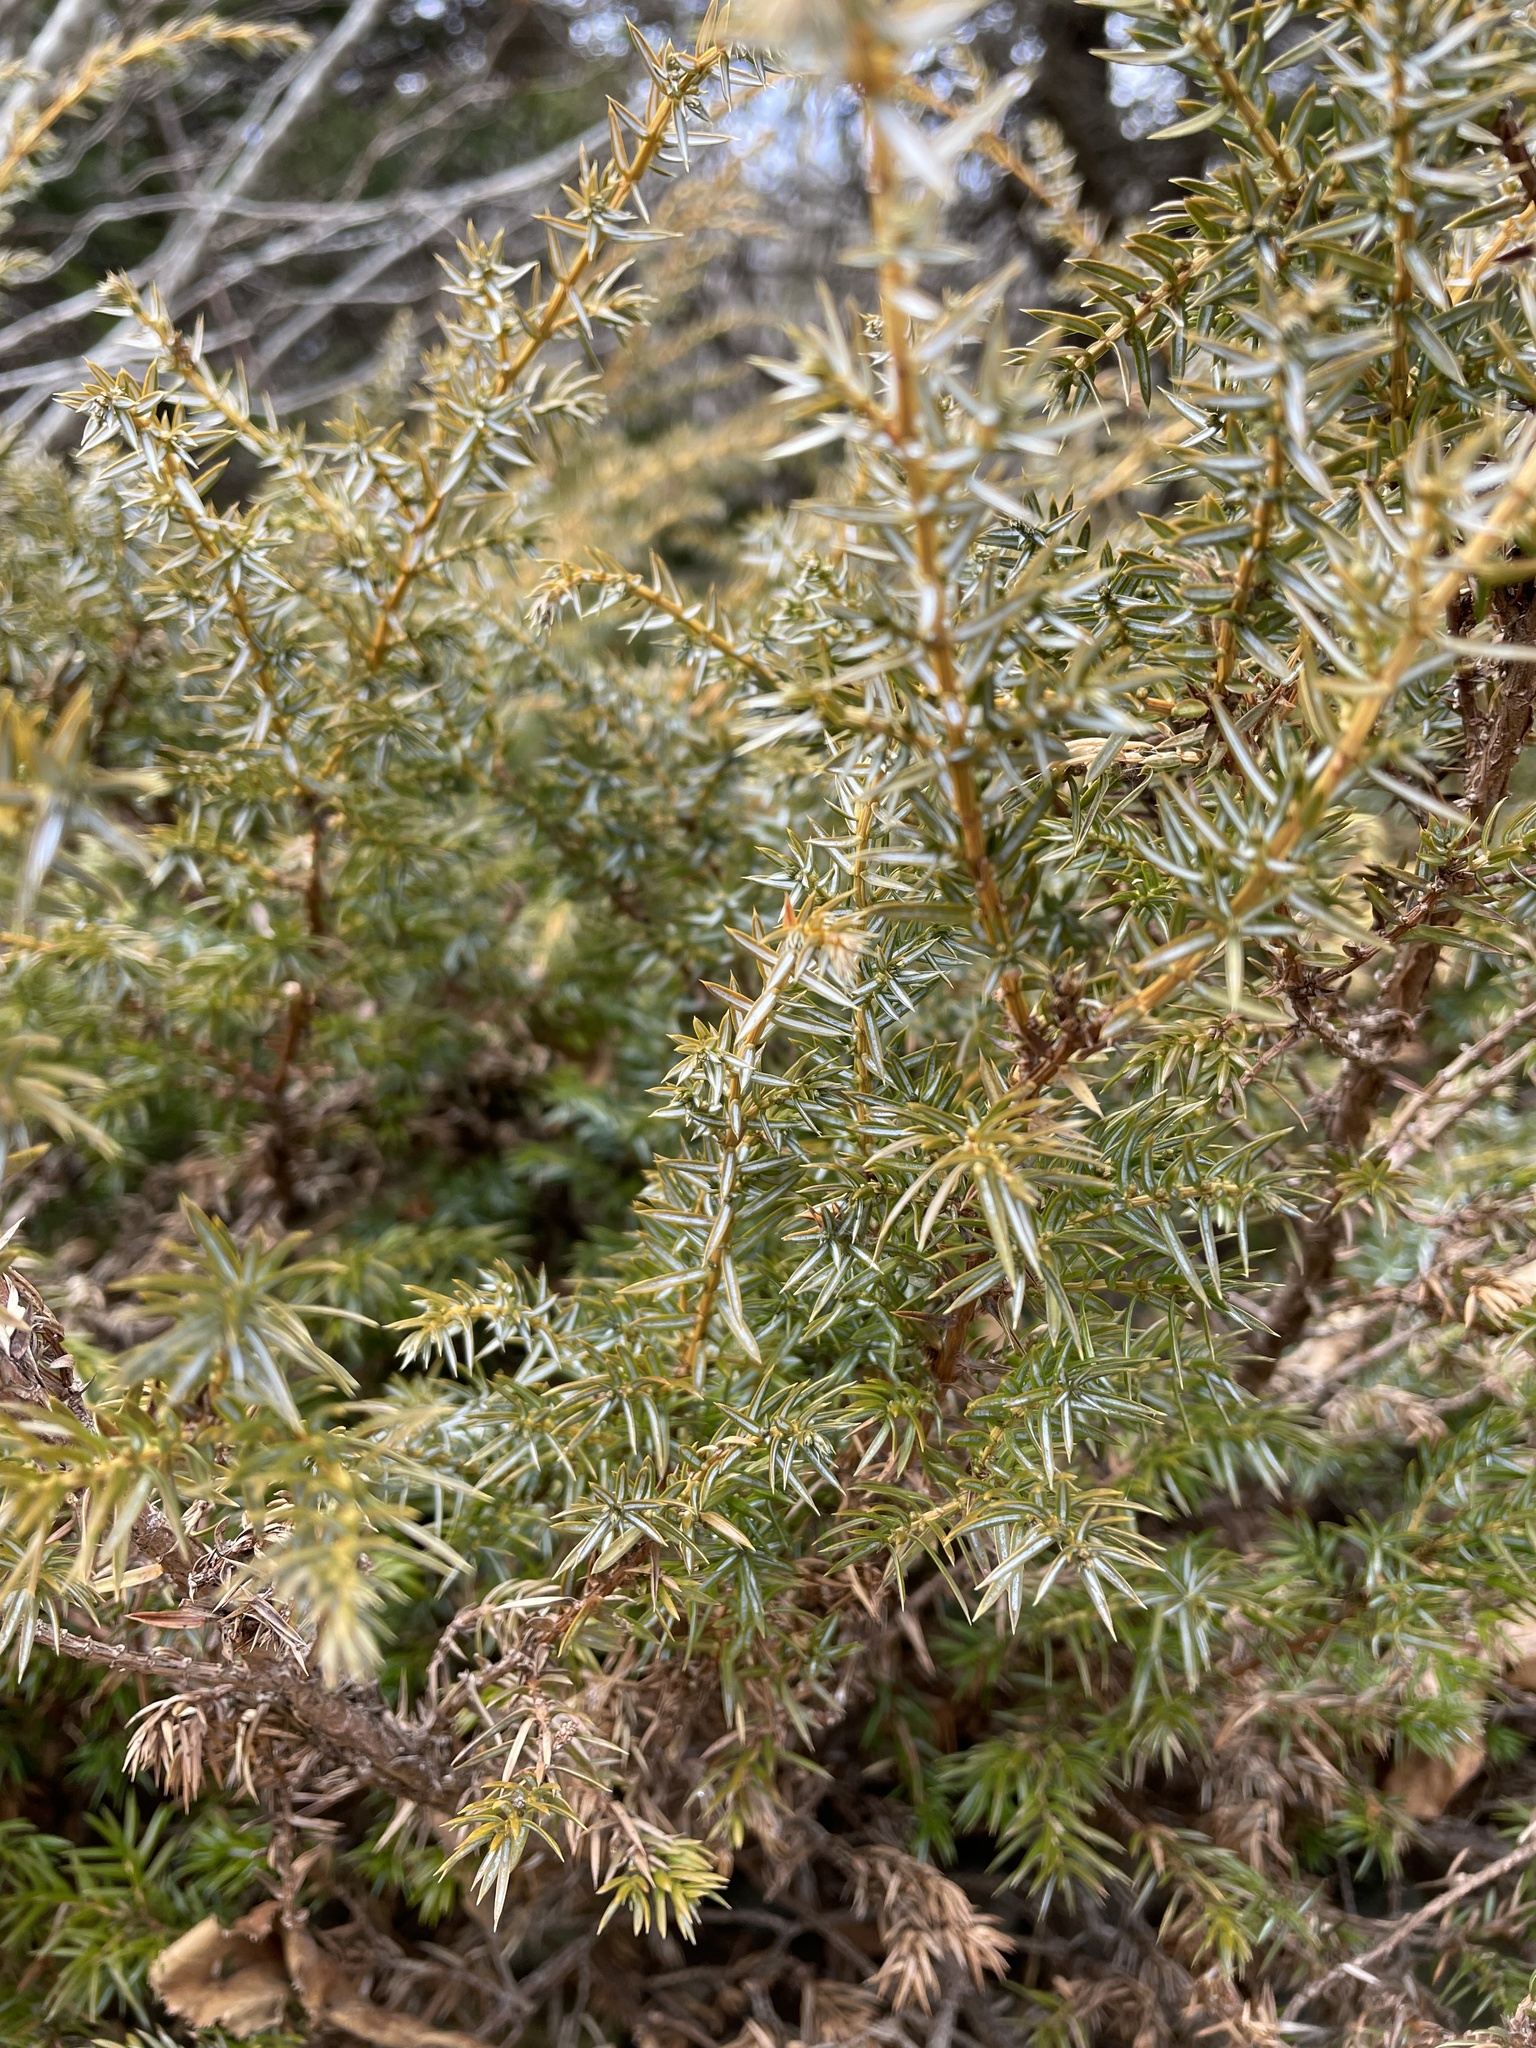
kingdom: Plantae
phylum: Tracheophyta
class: Pinopsida
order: Pinales
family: Cupressaceae
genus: Juniperus
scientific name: Juniperus communis
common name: Common juniper
